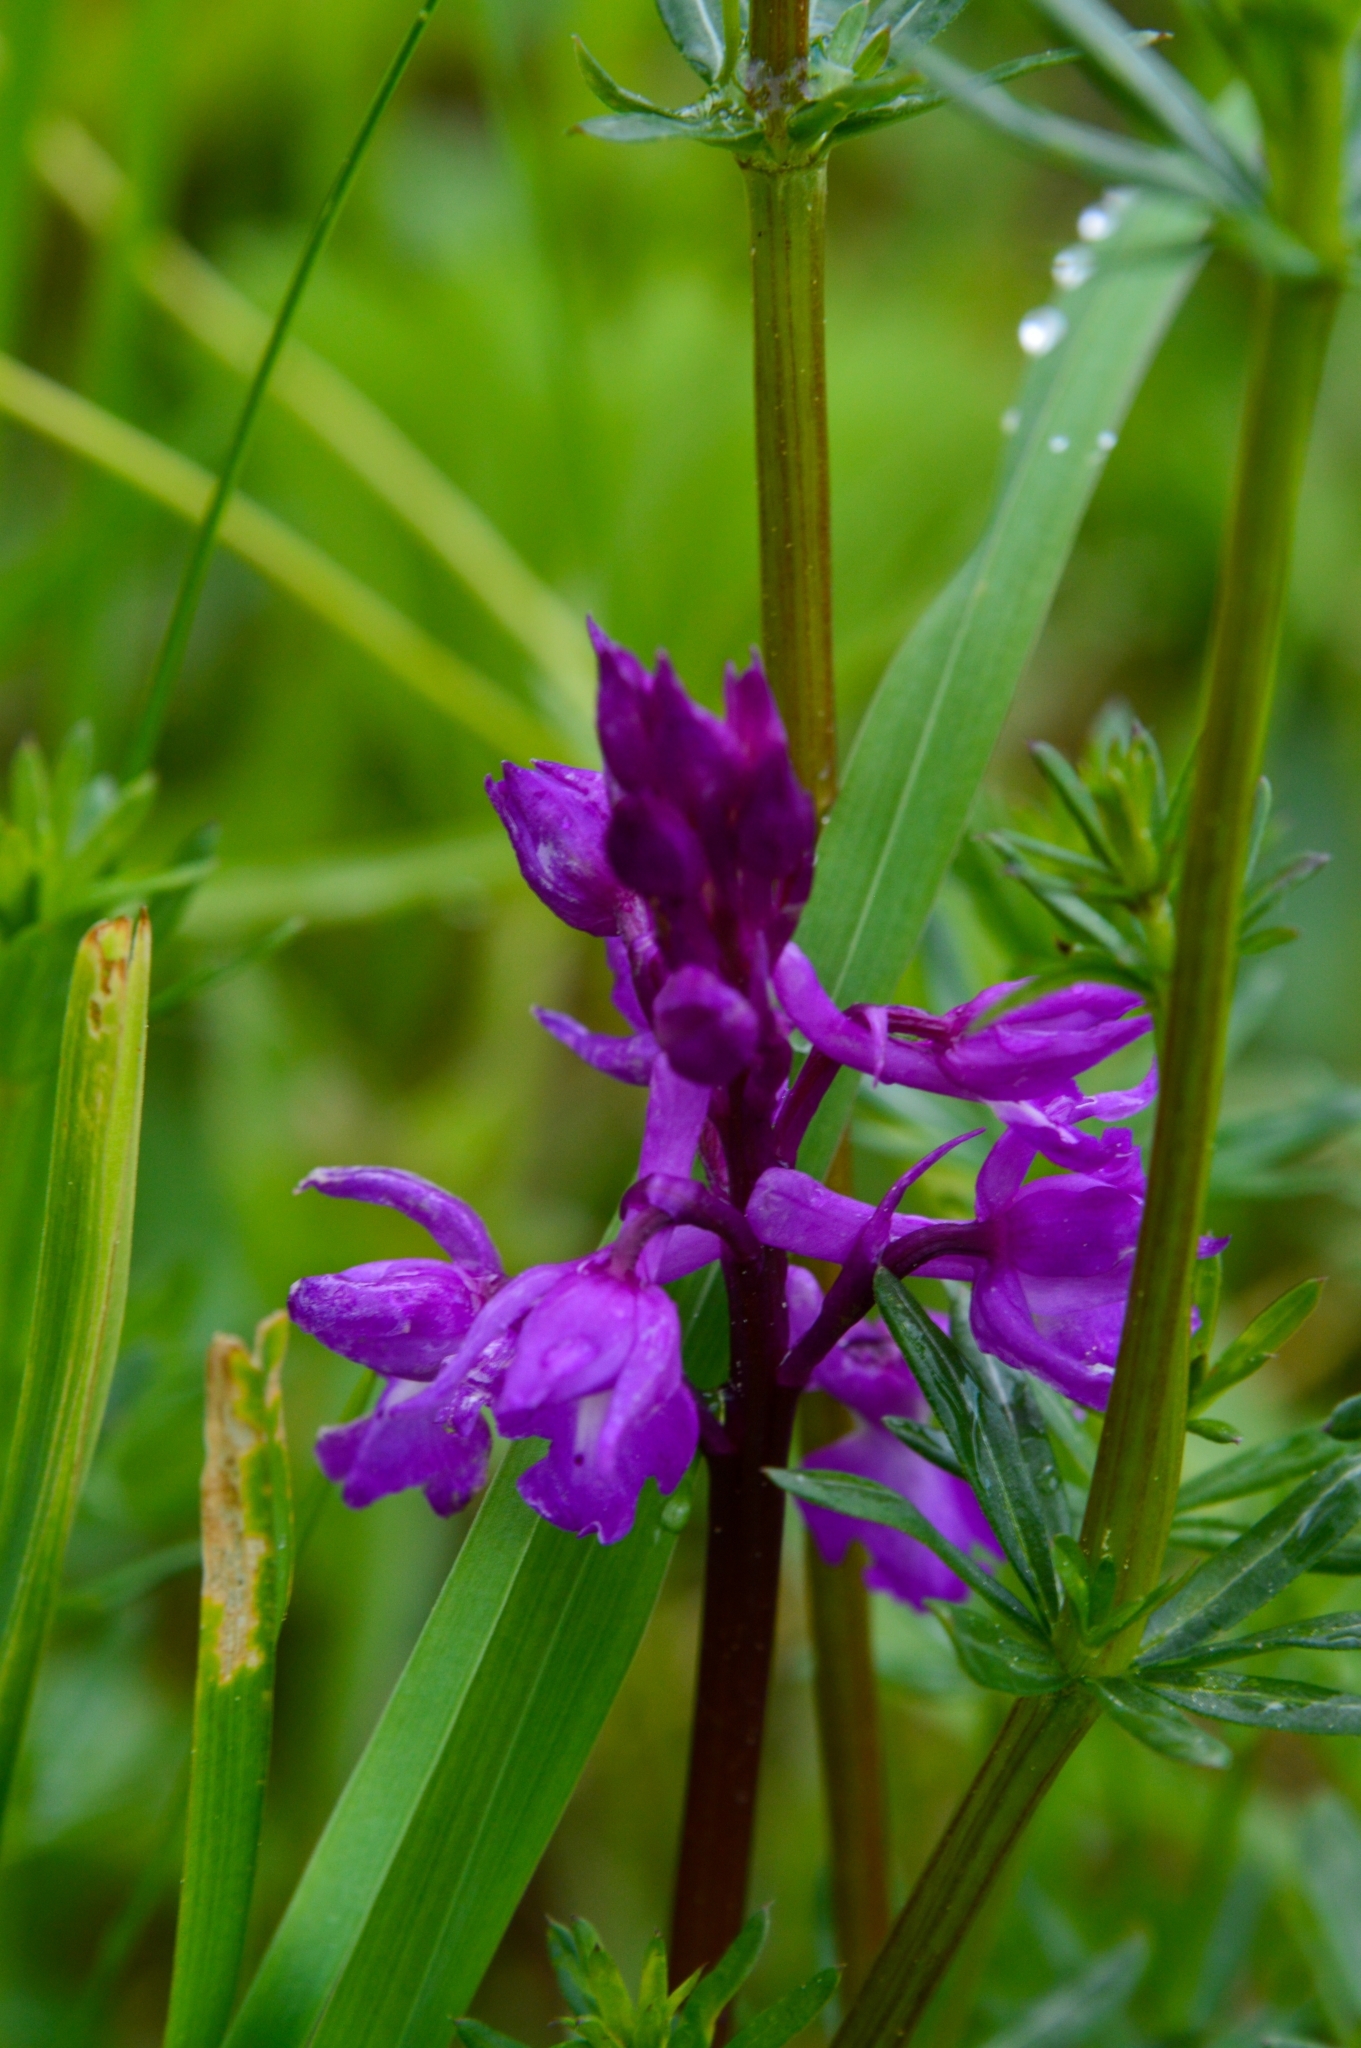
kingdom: Plantae
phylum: Tracheophyta
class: Liliopsida
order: Asparagales
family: Orchidaceae
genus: Orchis
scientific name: Orchis mascula
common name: Early-purple orchid
